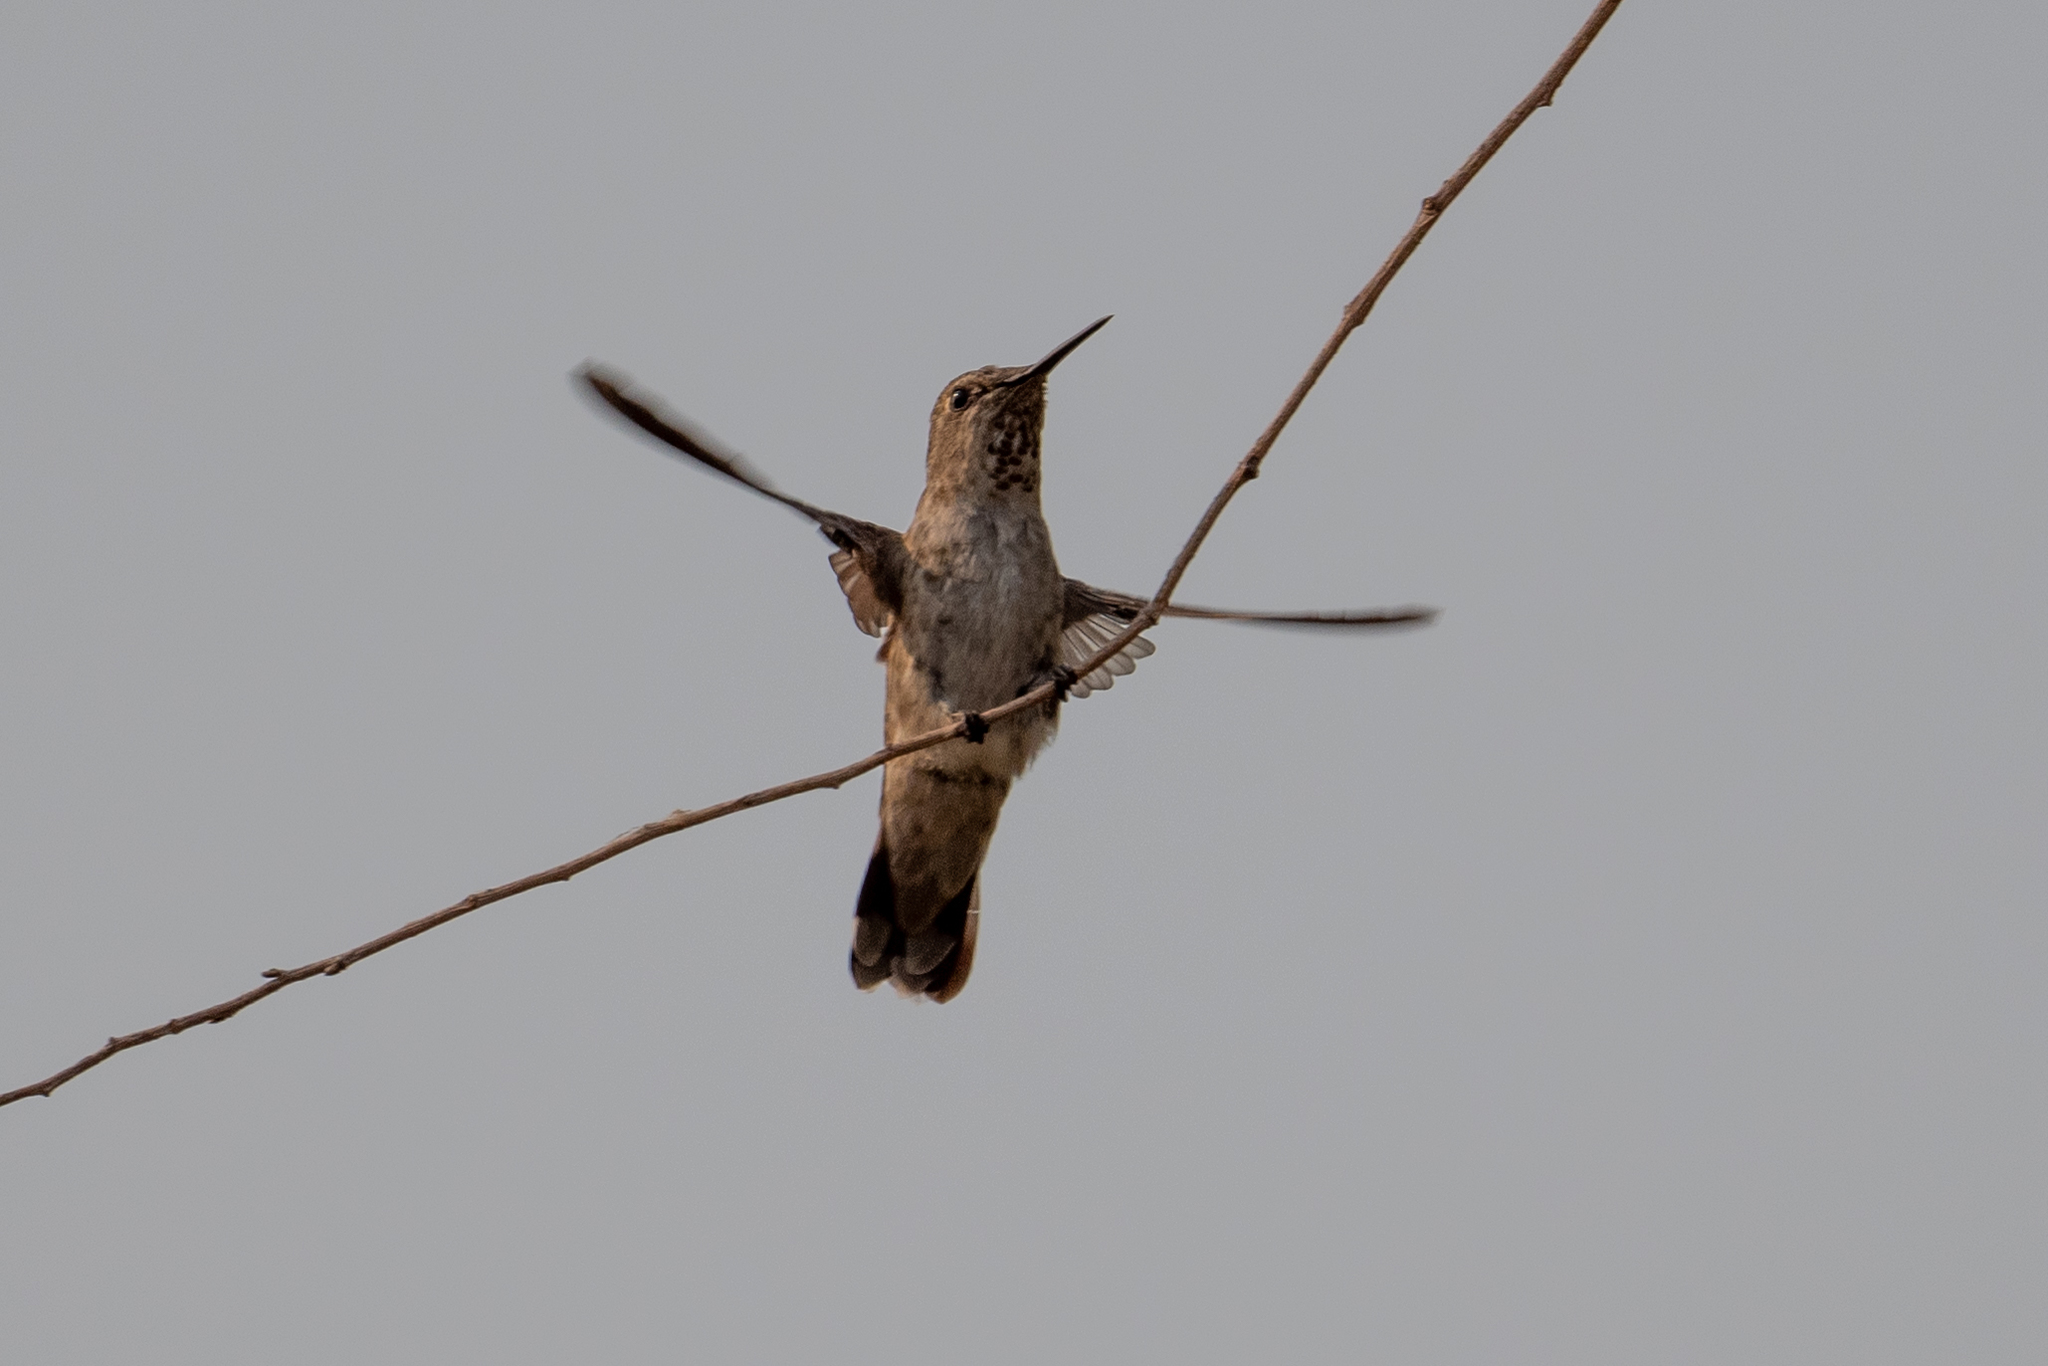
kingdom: Animalia
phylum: Chordata
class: Aves
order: Apodiformes
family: Trochilidae
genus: Calypte
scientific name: Calypte anna
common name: Anna's hummingbird
